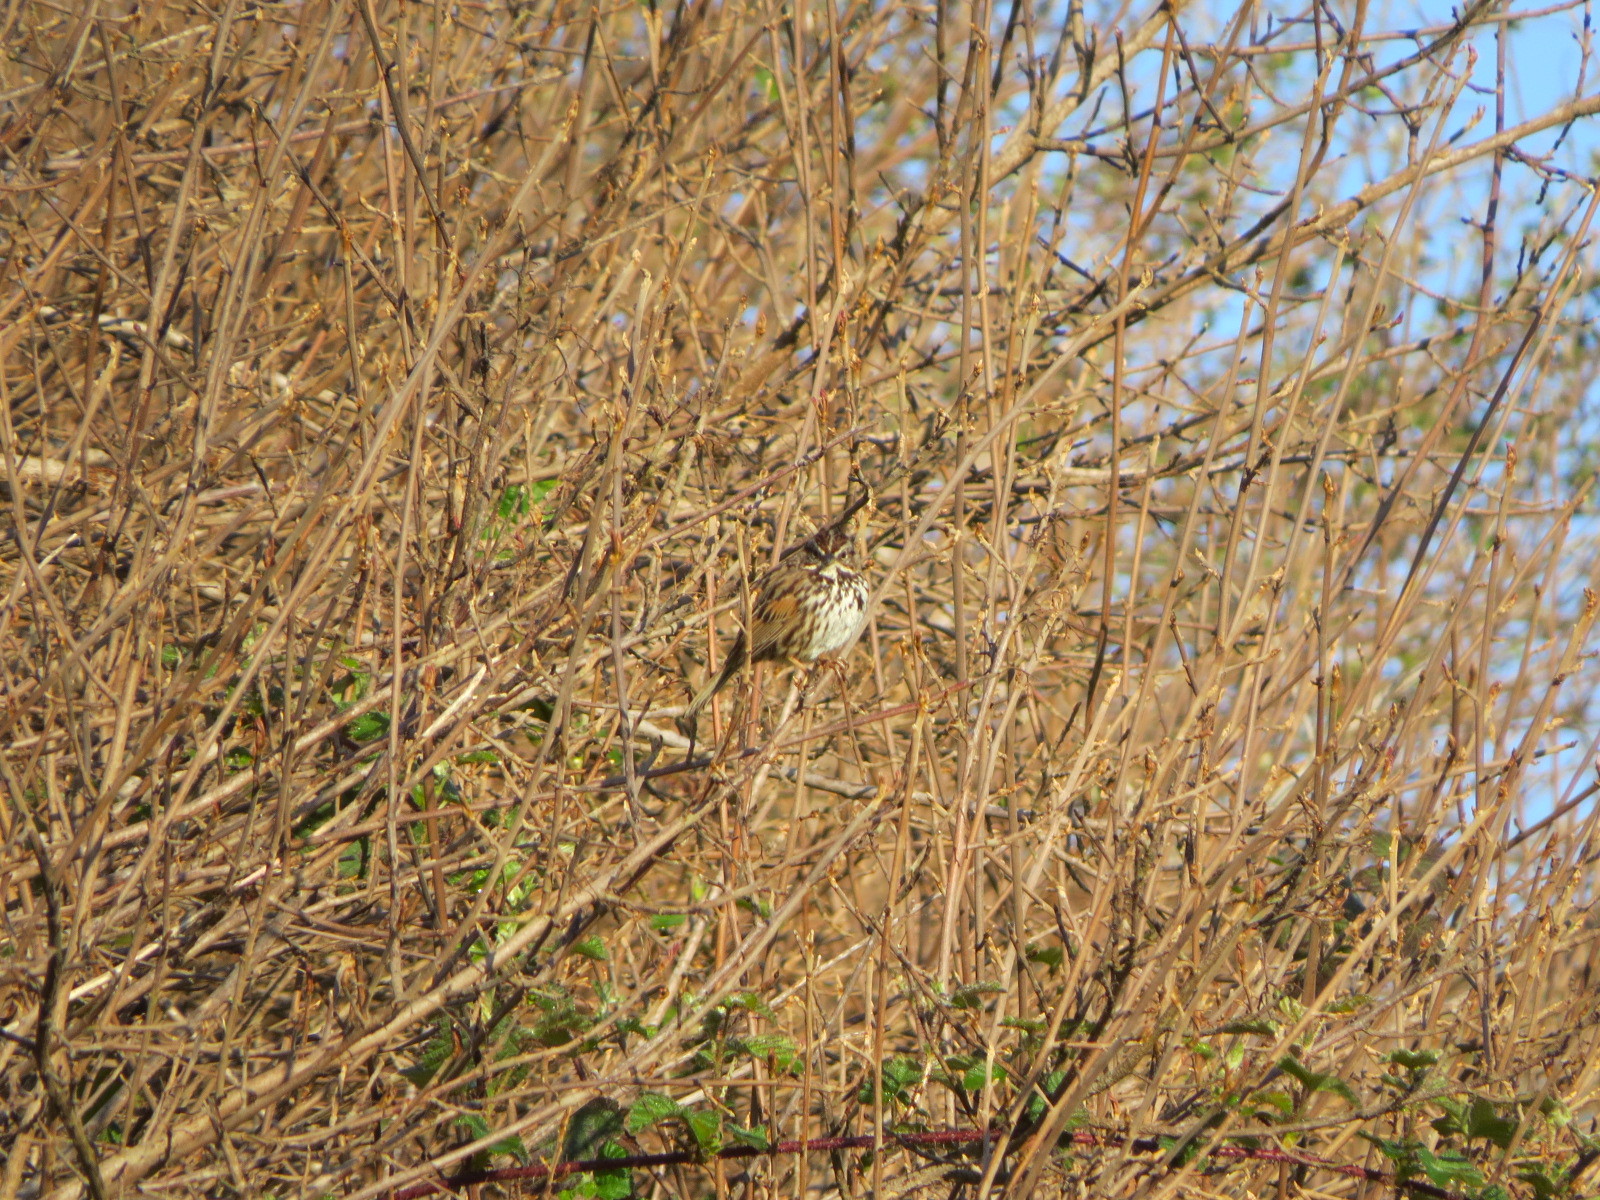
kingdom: Animalia
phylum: Chordata
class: Aves
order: Passeriformes
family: Passerellidae
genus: Melospiza
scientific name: Melospiza melodia
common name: Song sparrow
